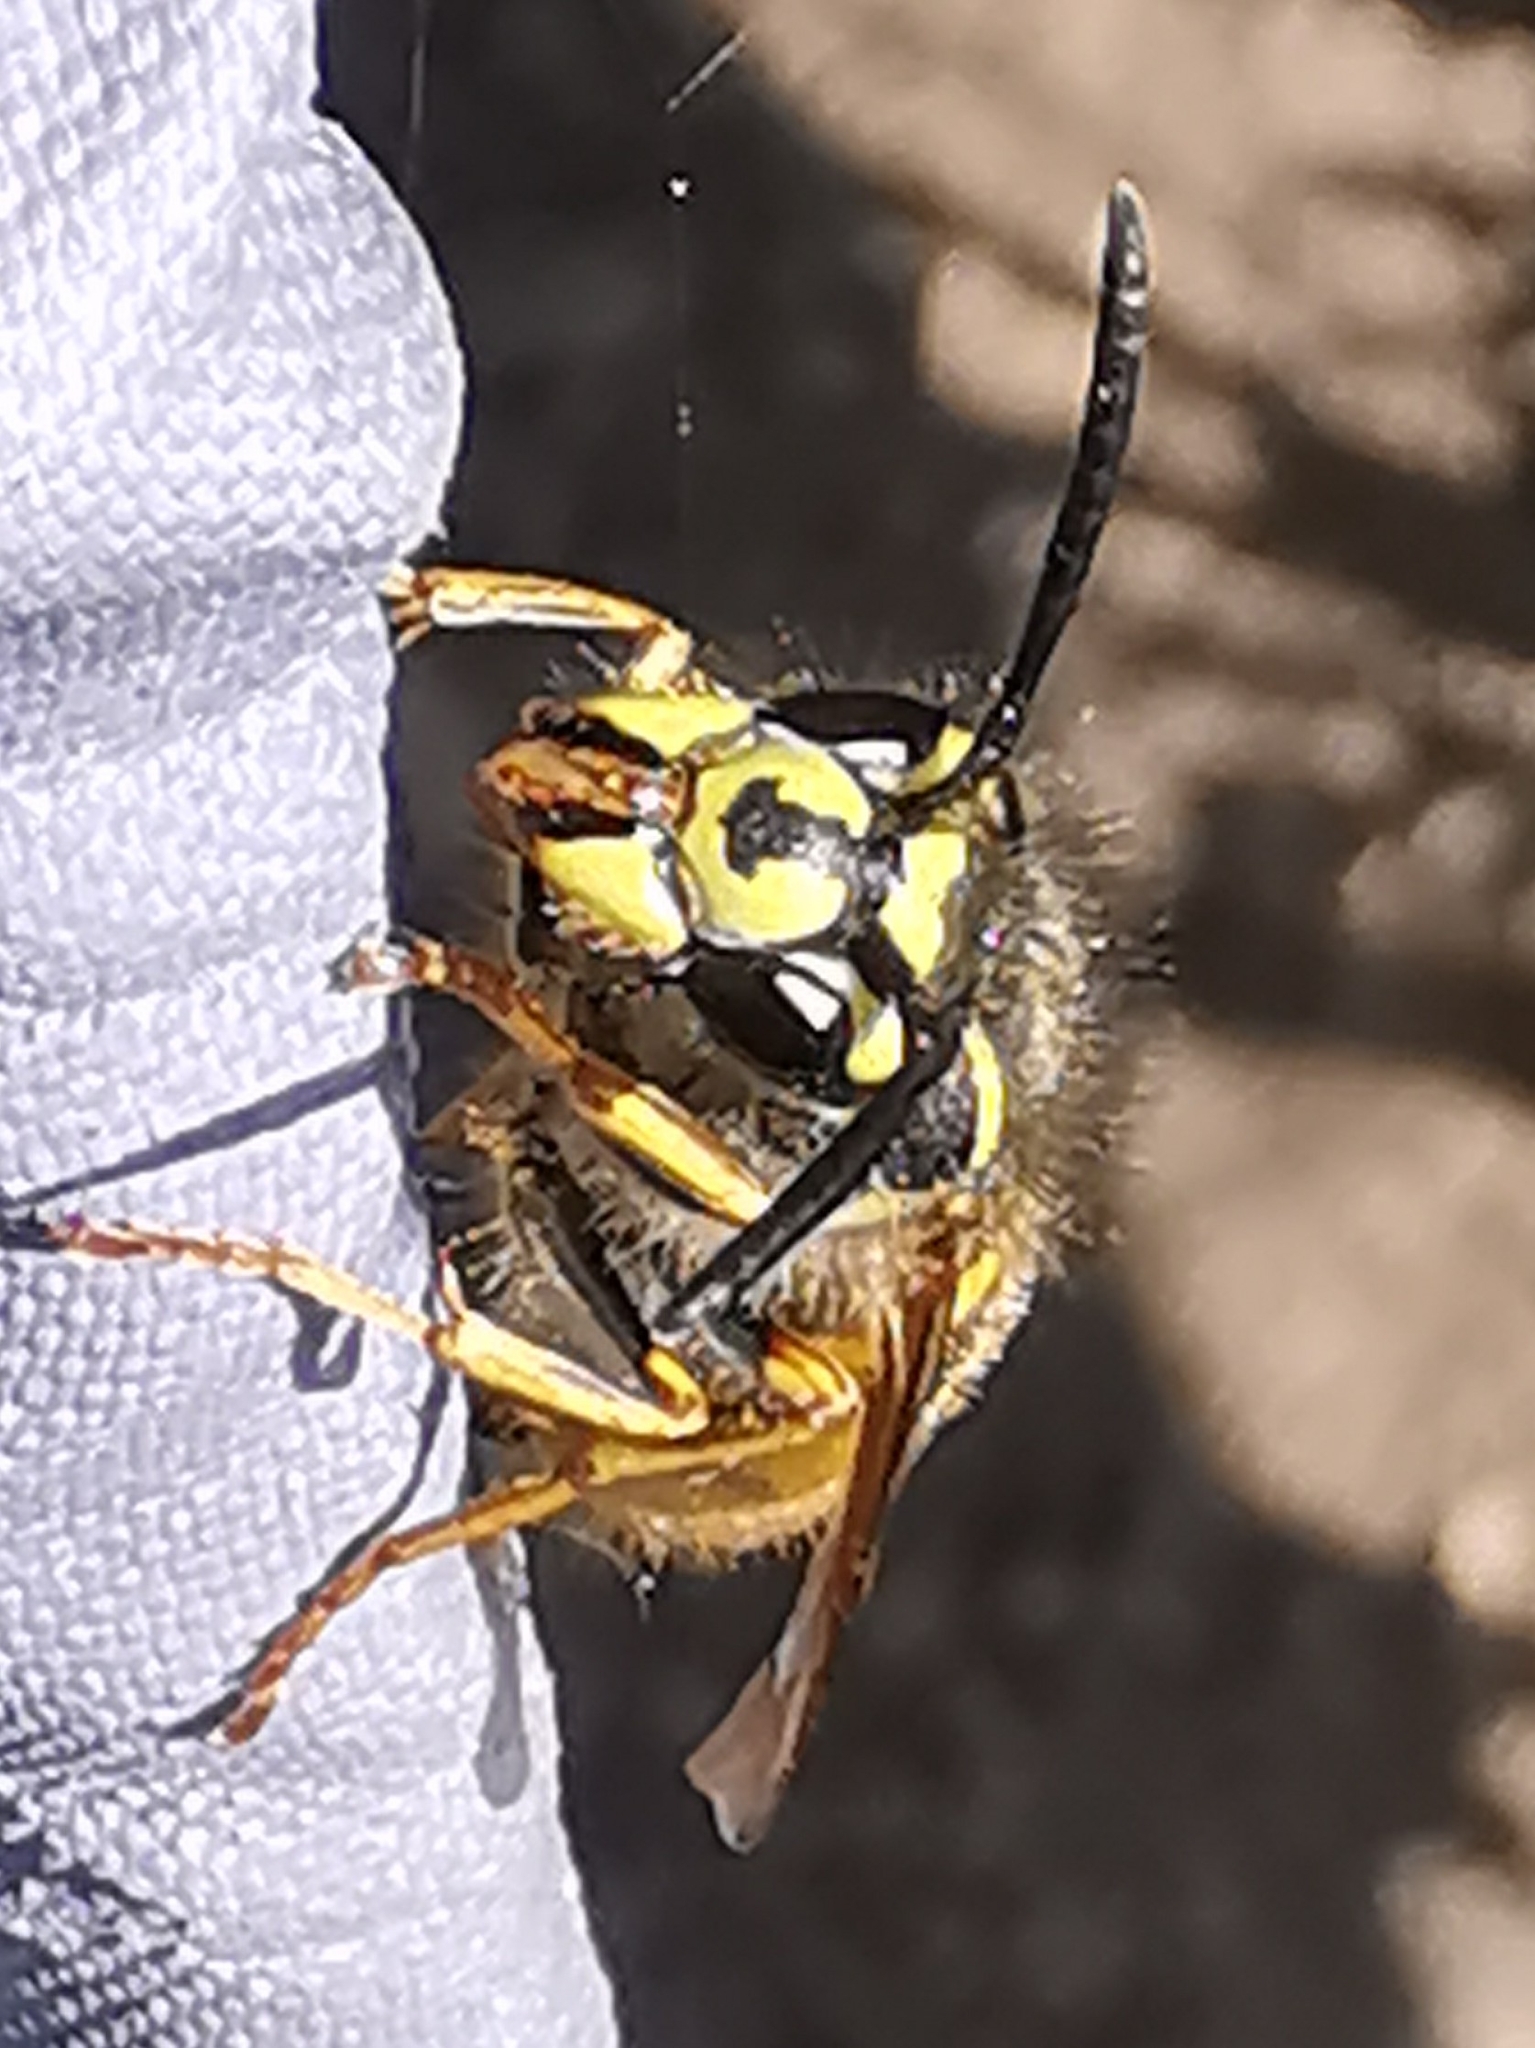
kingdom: Animalia
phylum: Arthropoda
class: Insecta
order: Hymenoptera
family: Vespidae
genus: Vespula
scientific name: Vespula vulgaris
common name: Common wasp
